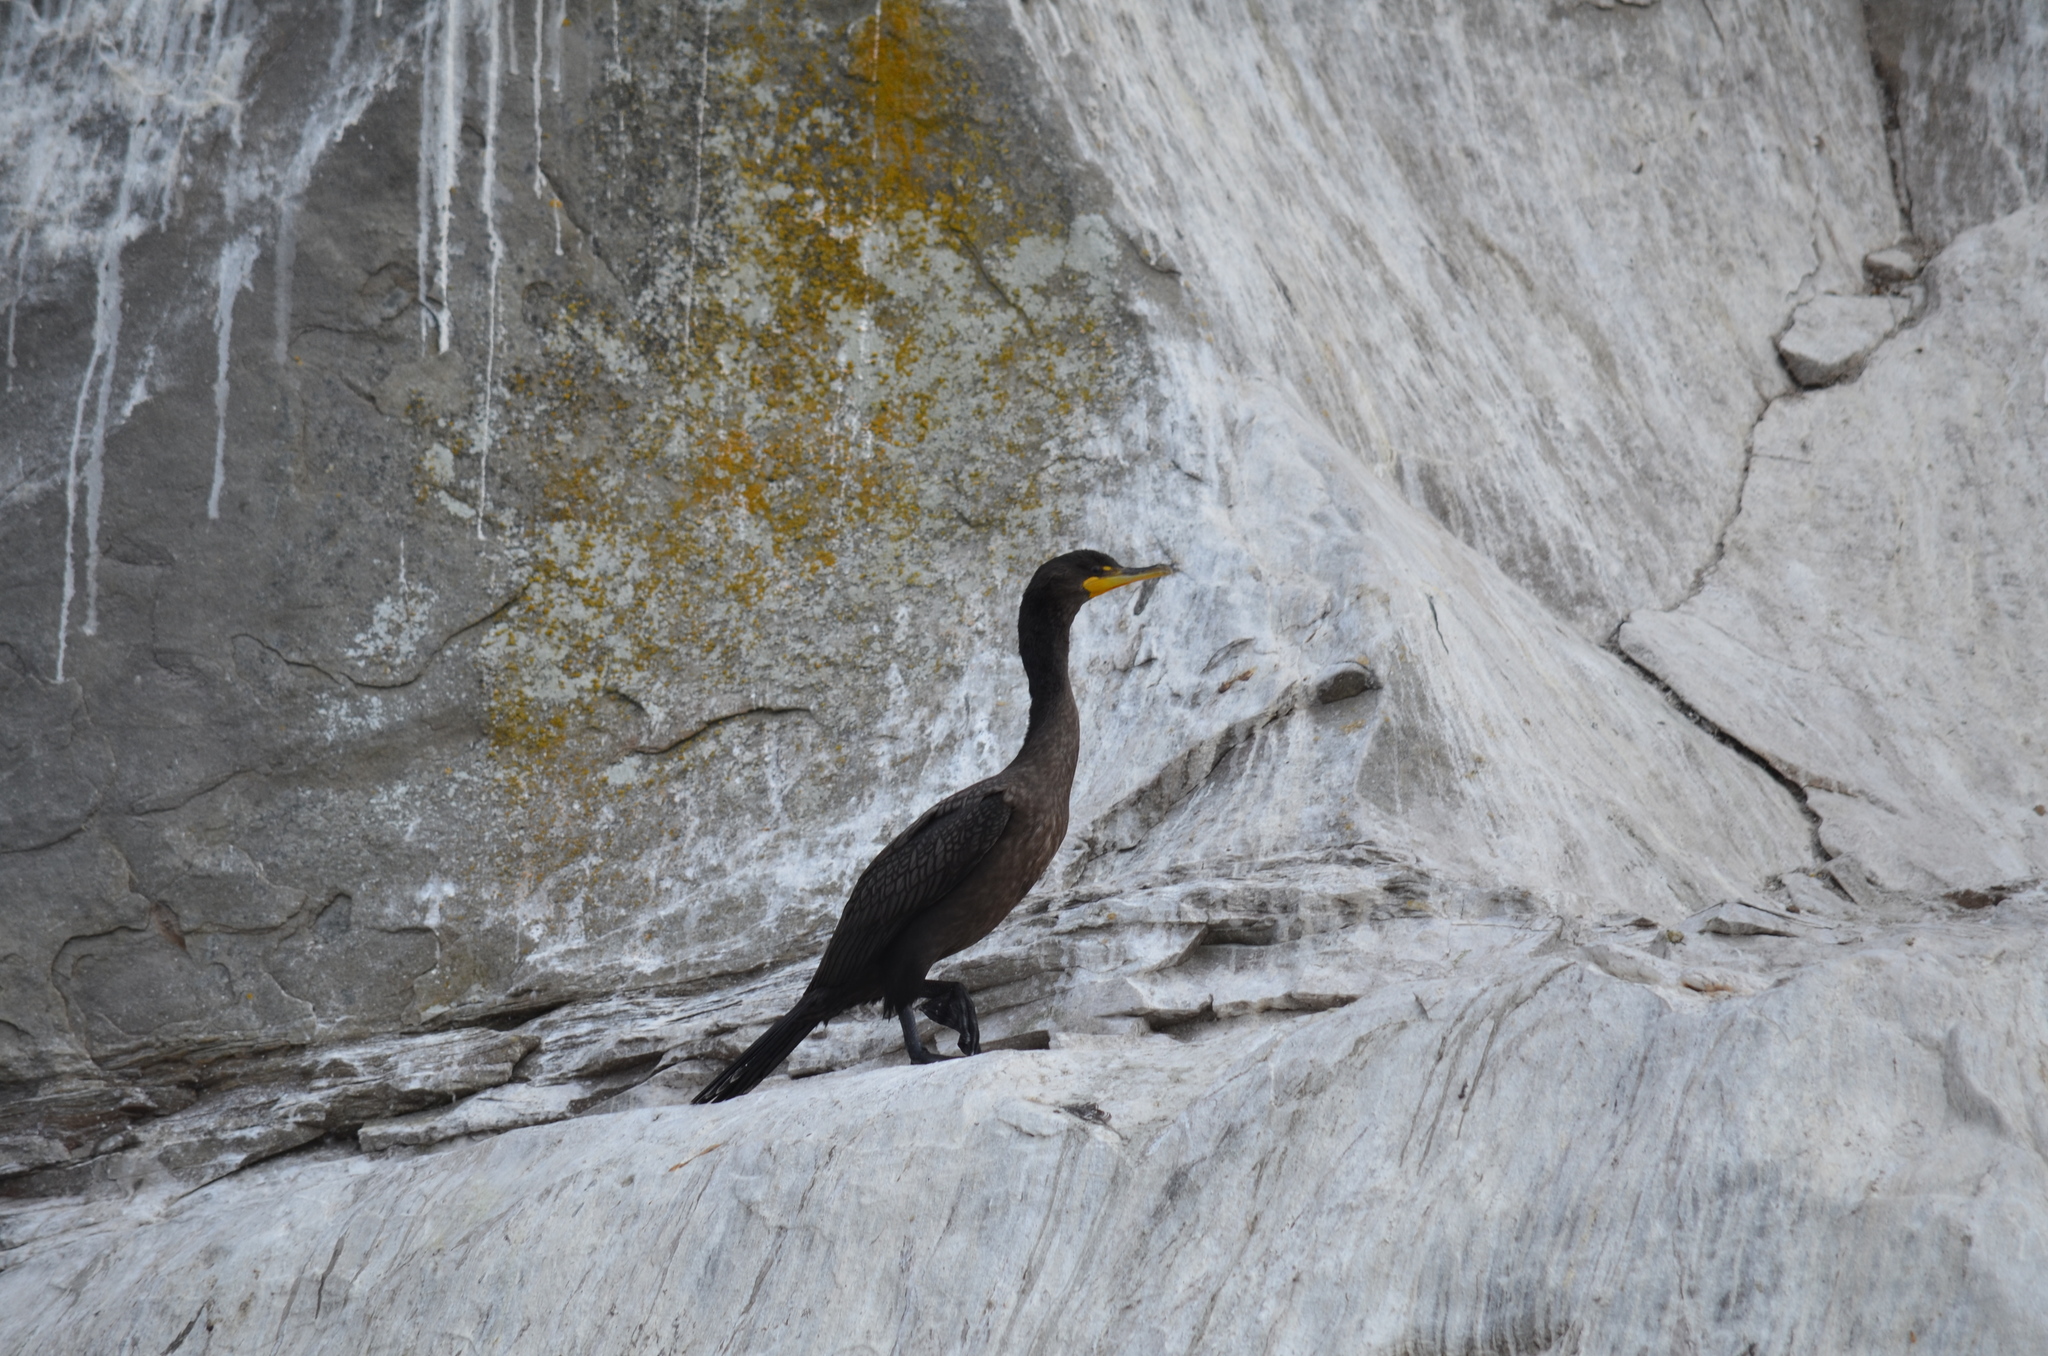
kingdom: Animalia
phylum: Chordata
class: Aves
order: Suliformes
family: Phalacrocoracidae
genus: Phalacrocorax
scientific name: Phalacrocorax auritus
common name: Double-crested cormorant
